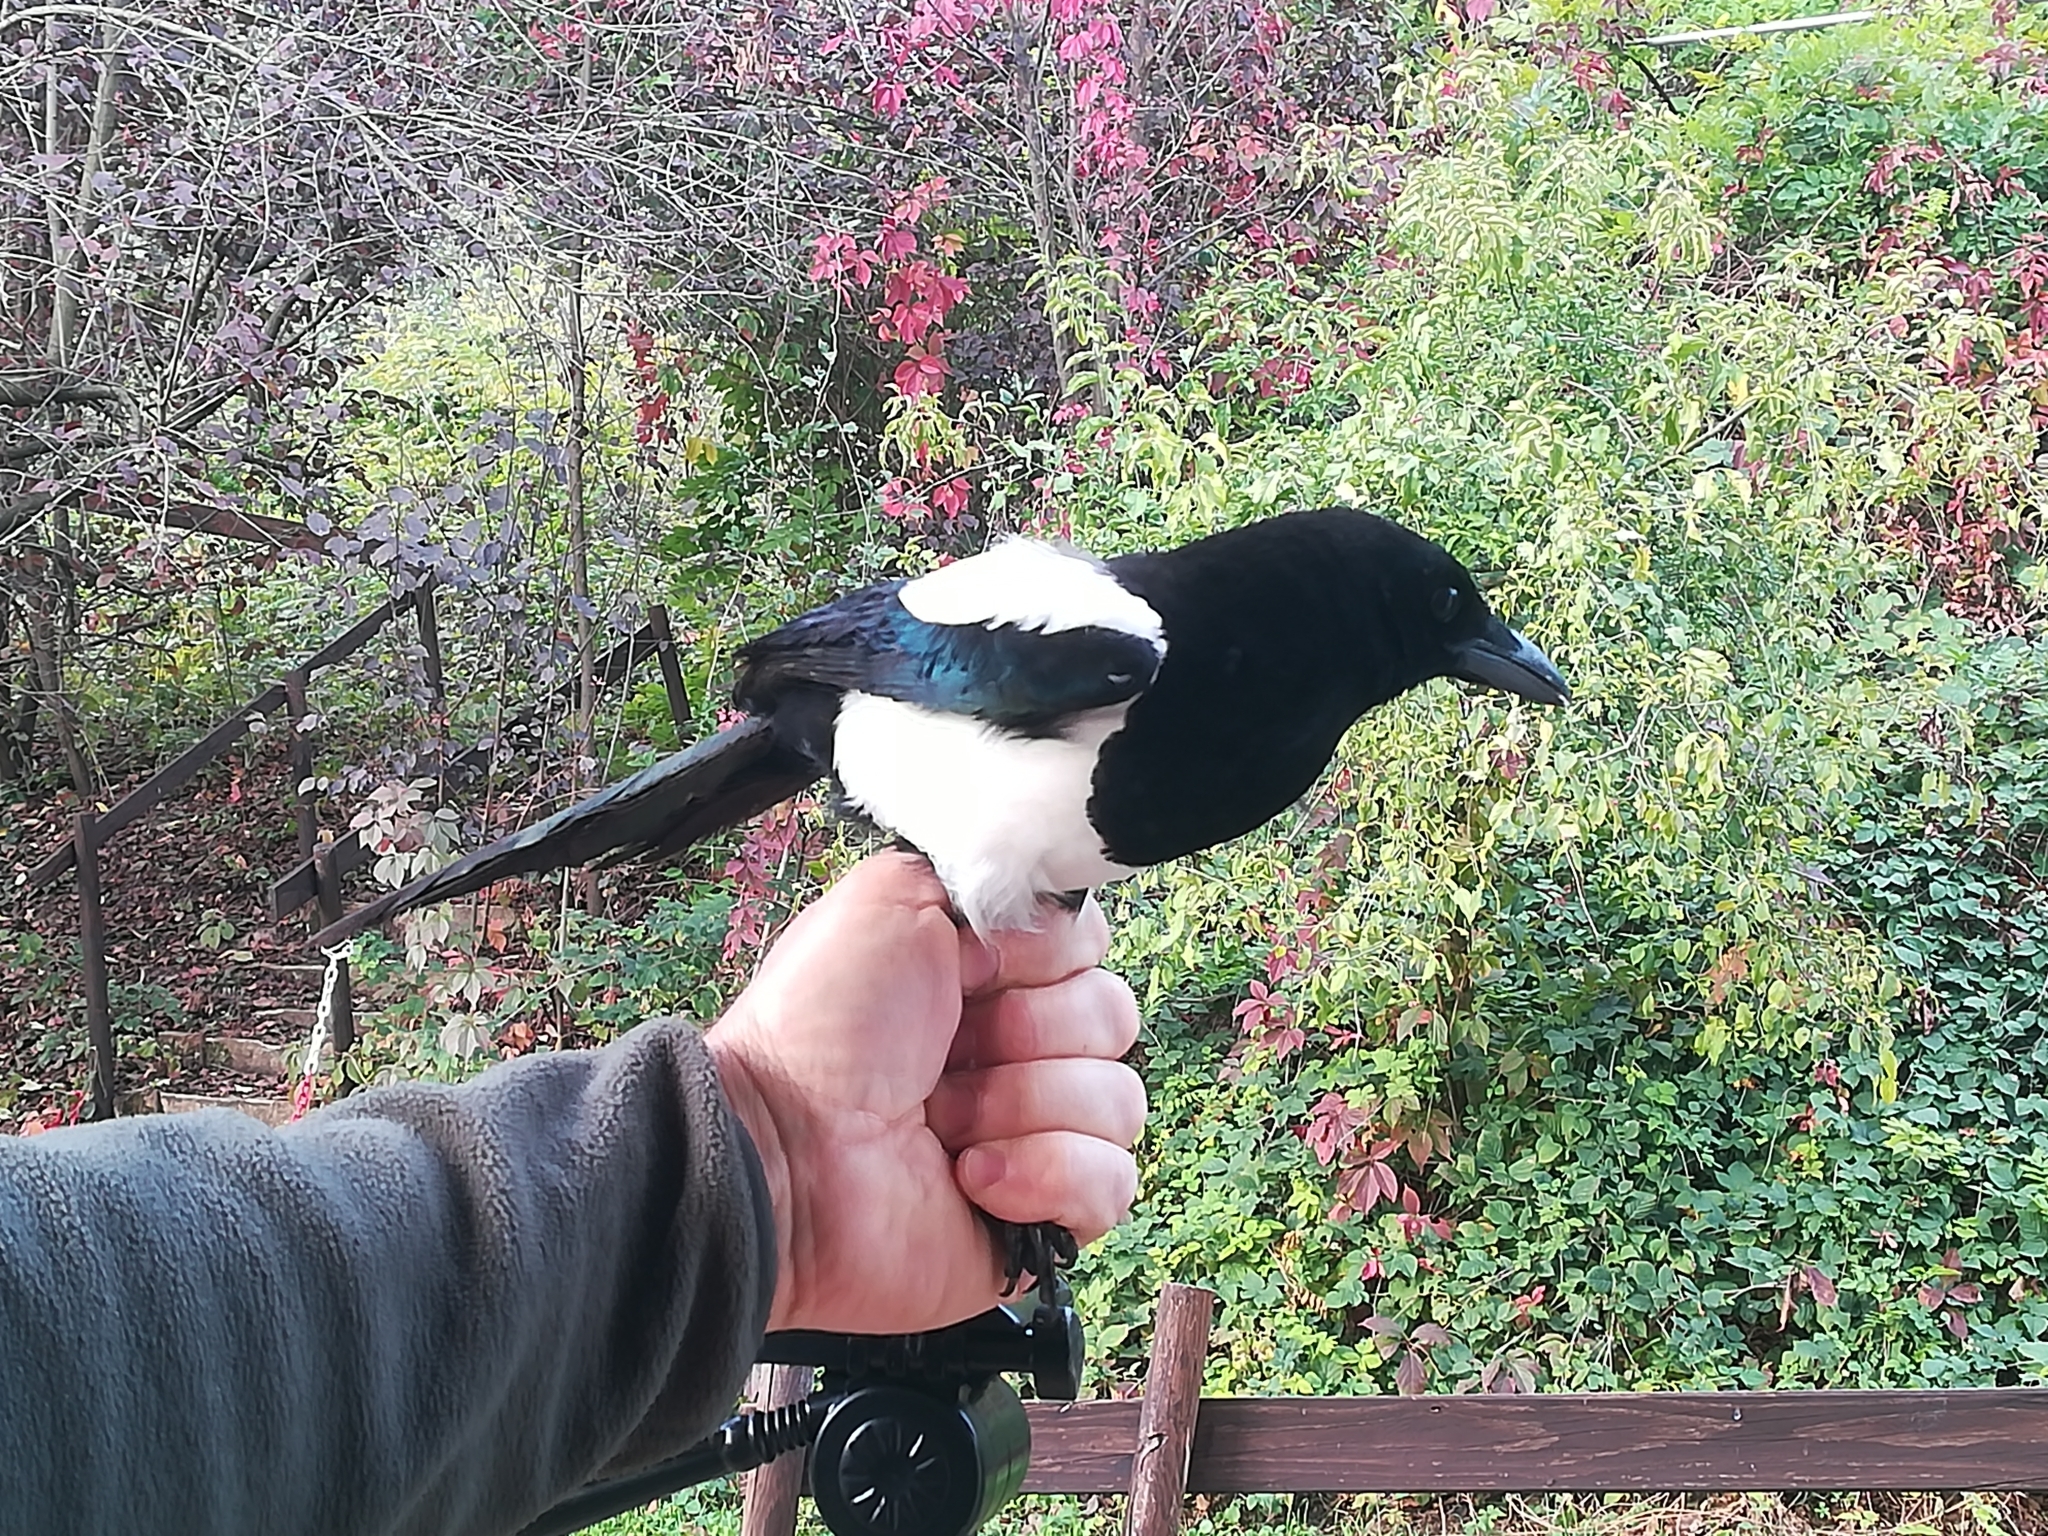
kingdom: Animalia
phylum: Chordata
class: Aves
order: Passeriformes
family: Corvidae
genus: Pica
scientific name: Pica pica
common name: Eurasian magpie
